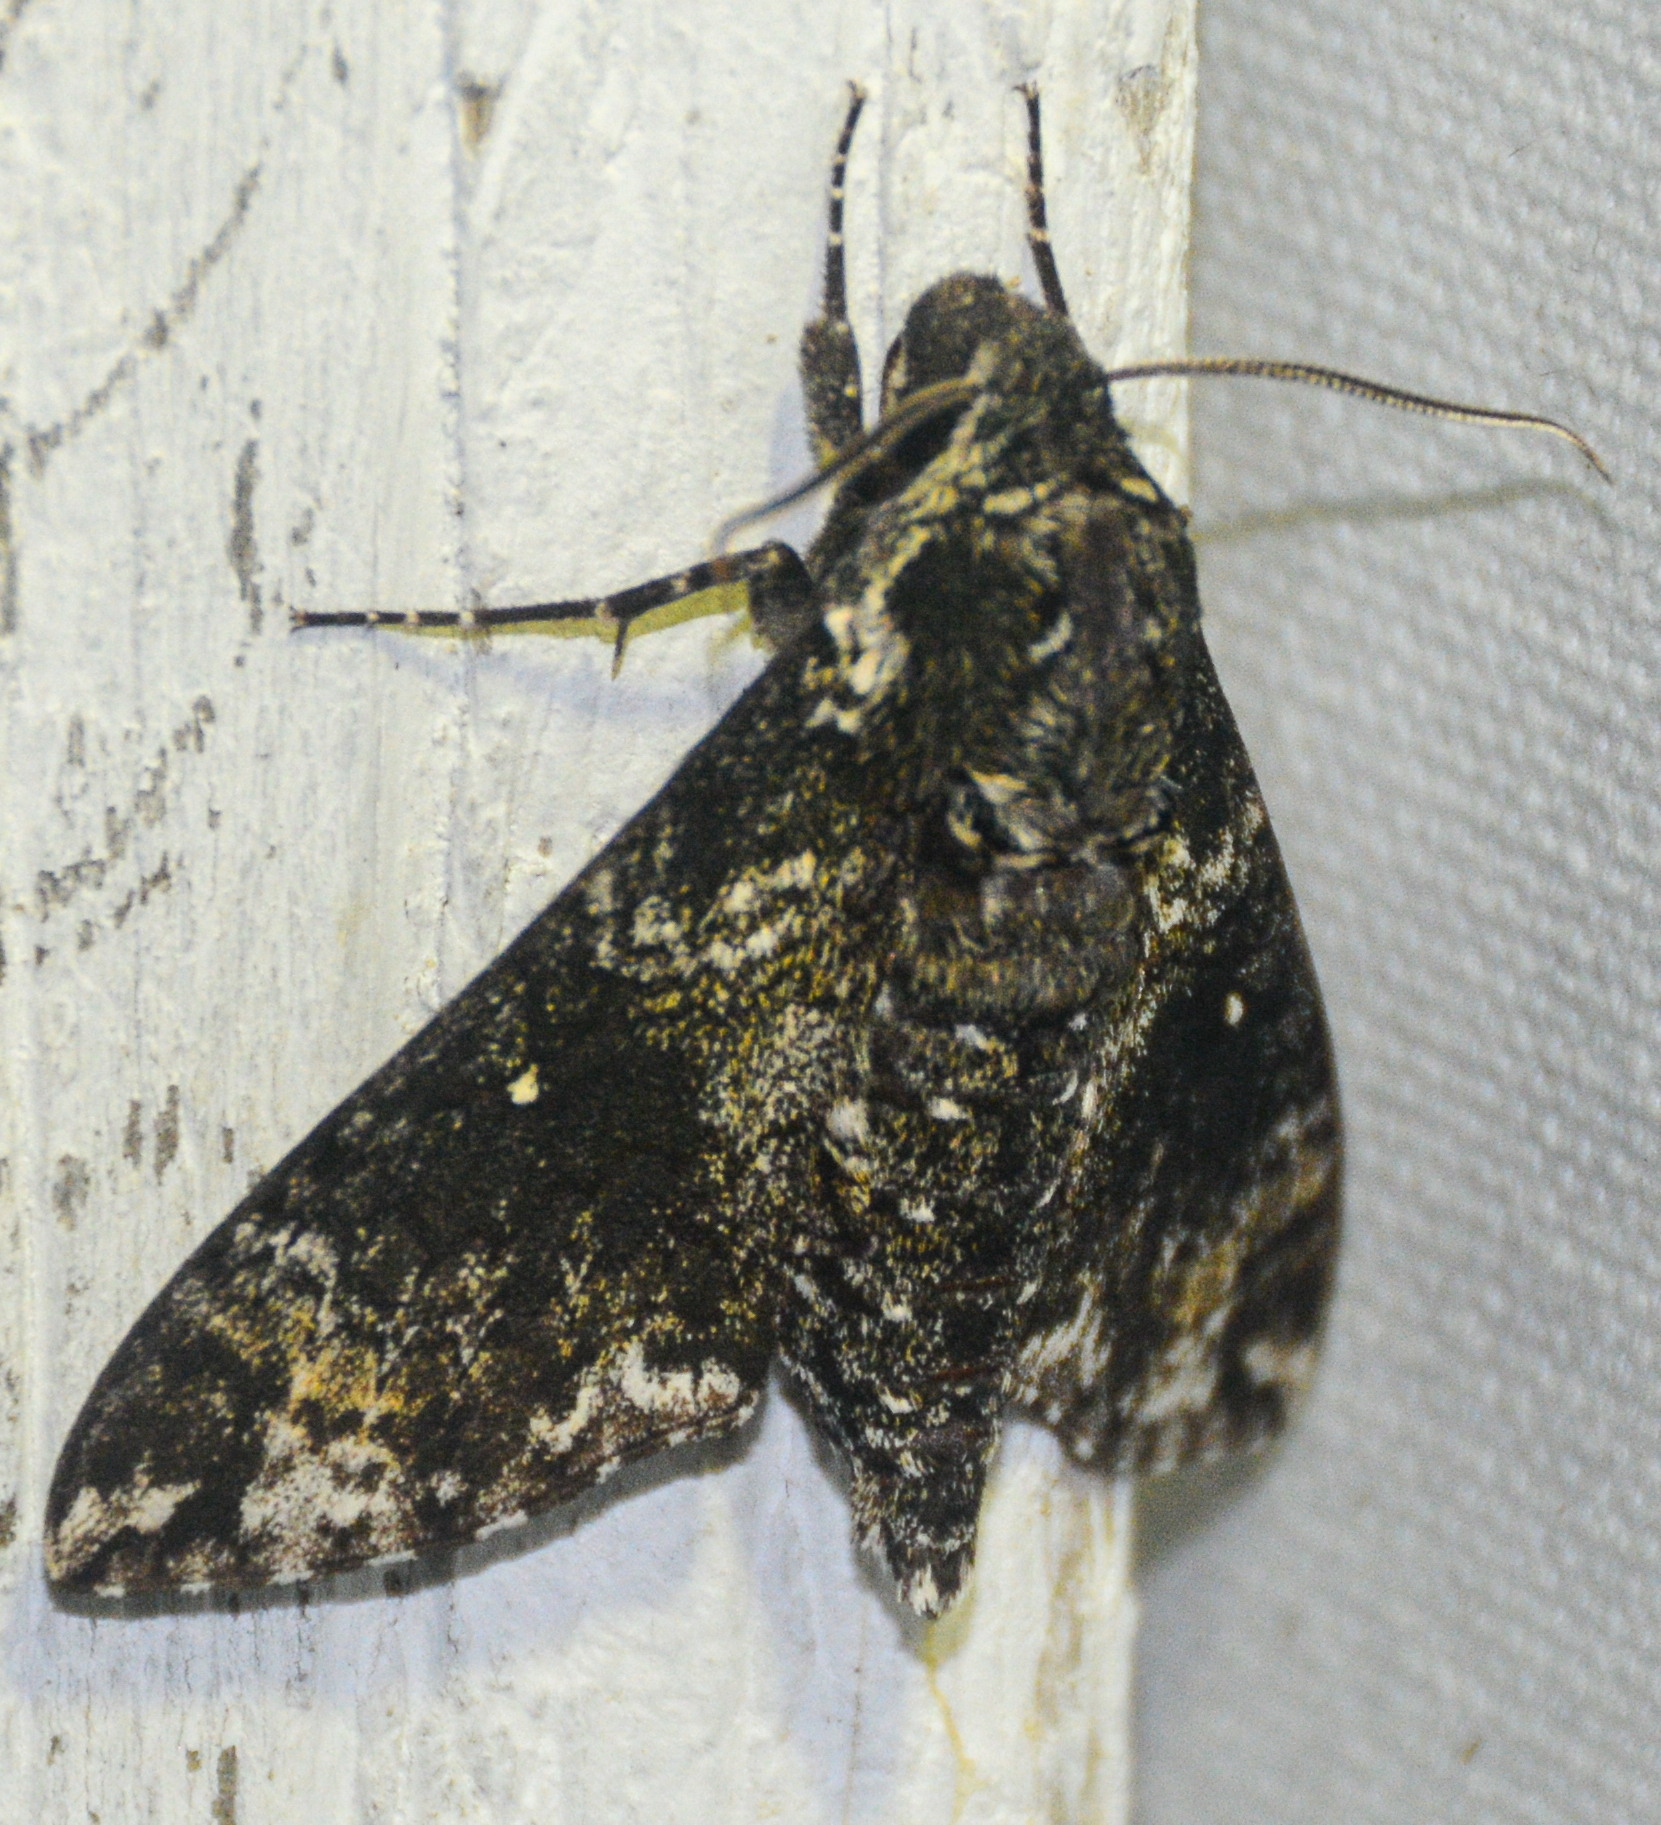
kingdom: Animalia
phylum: Arthropoda
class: Insecta
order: Lepidoptera
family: Sphingidae
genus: Dolba
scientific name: Dolba hyloeus
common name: Pawpaw sphinx
